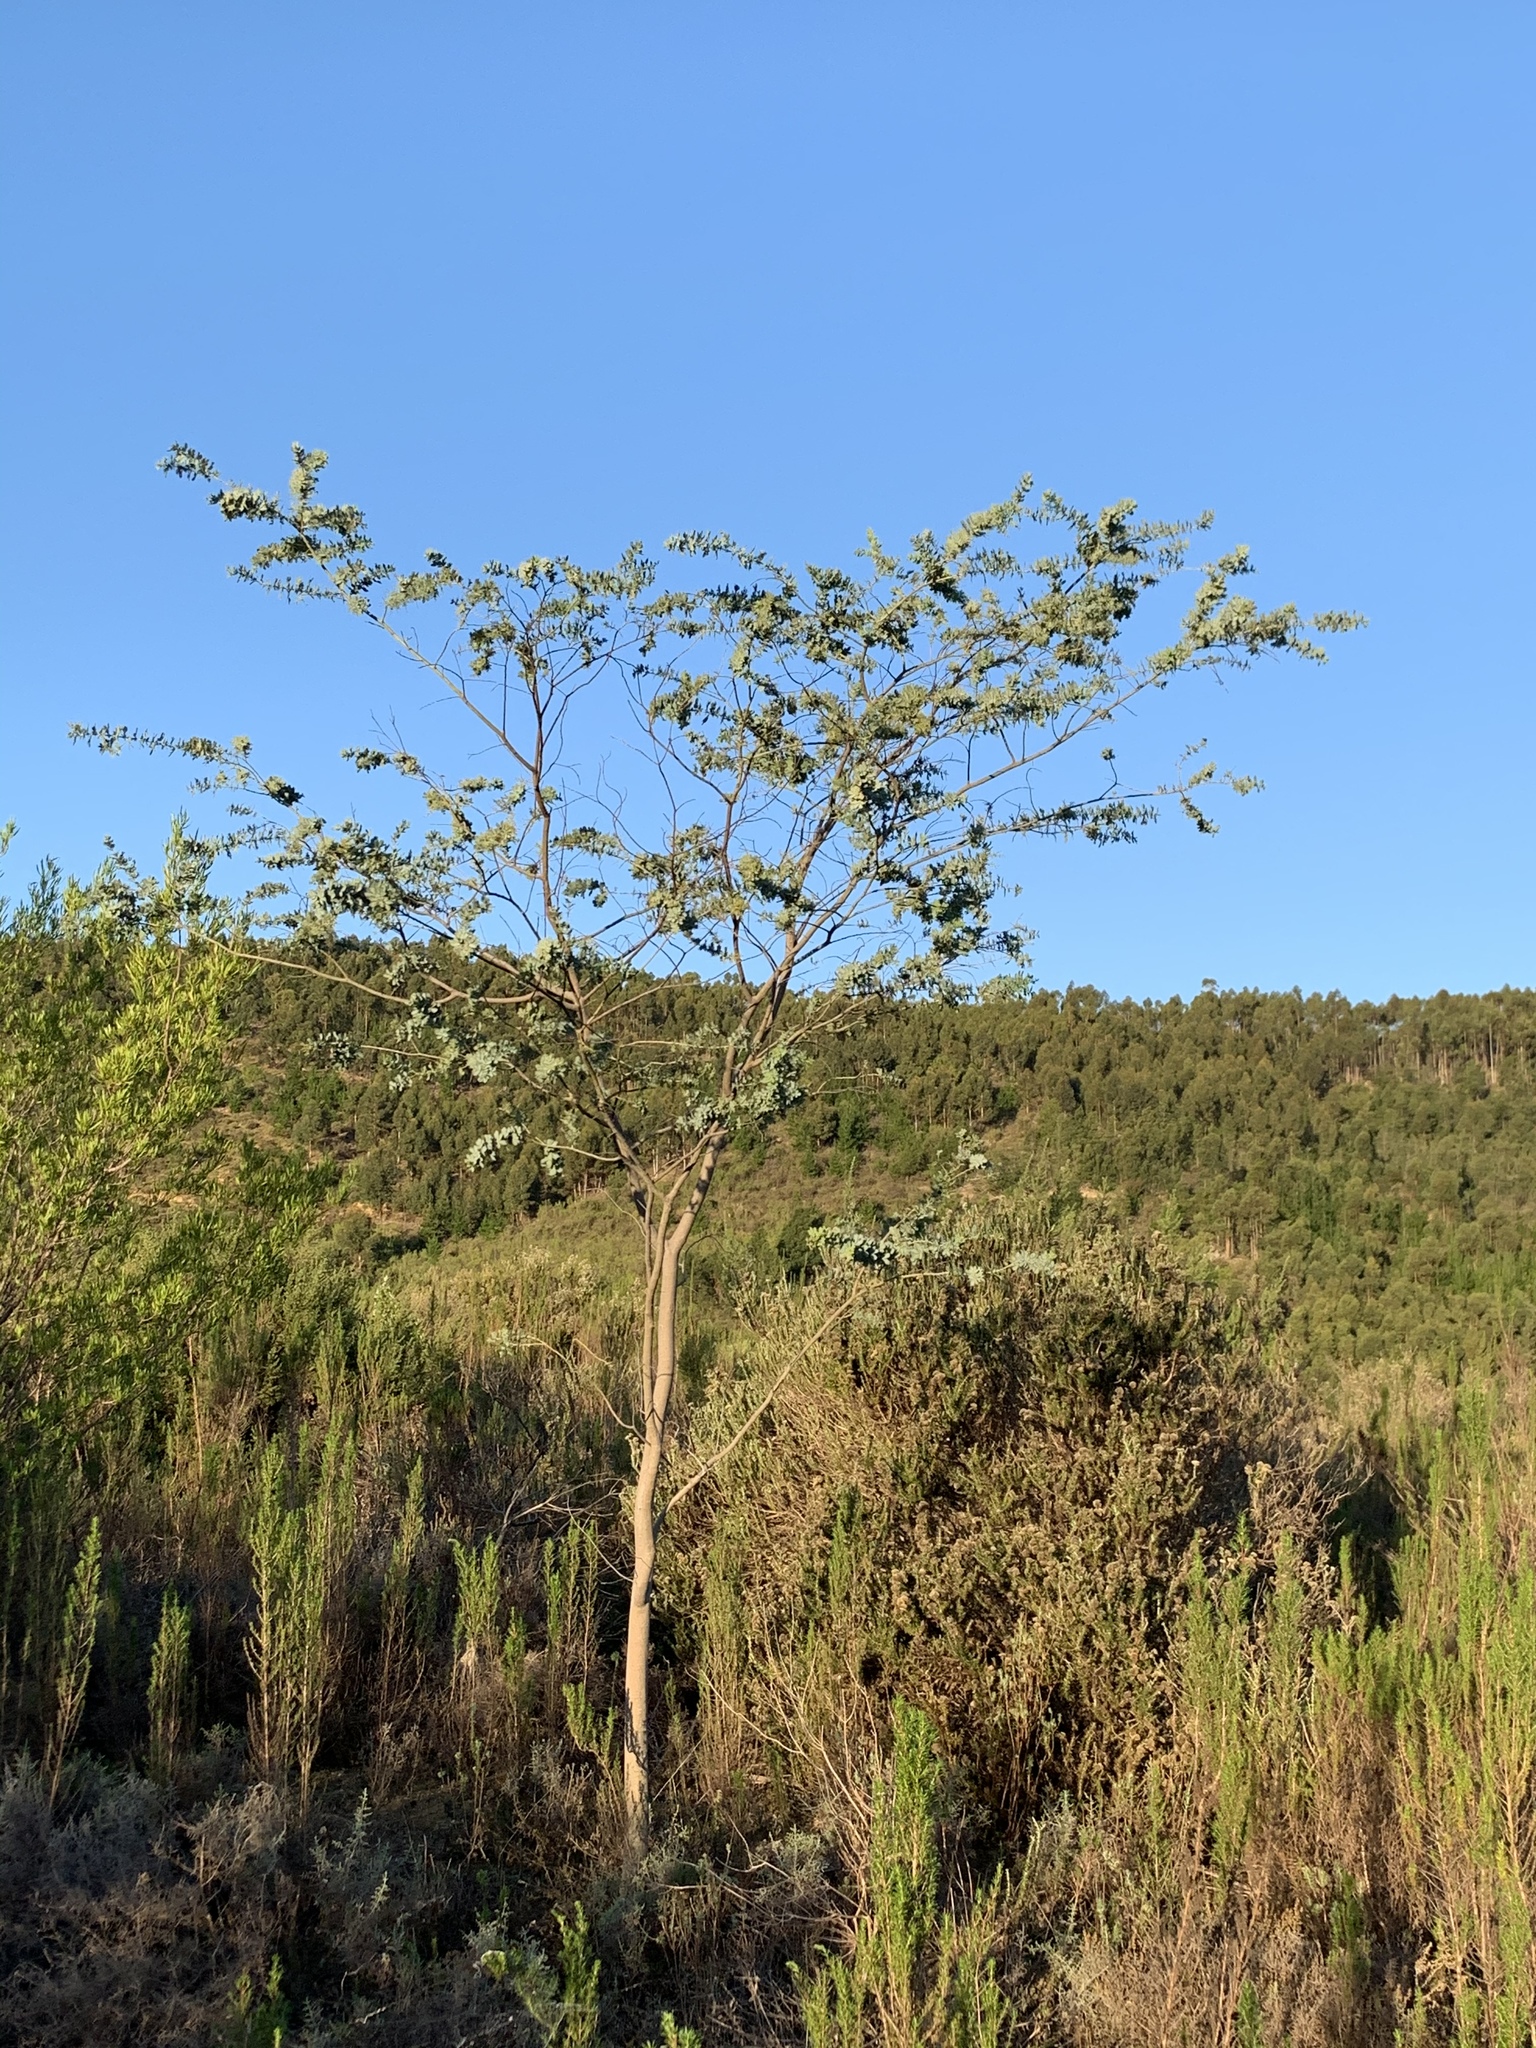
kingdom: Plantae
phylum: Tracheophyta
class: Magnoliopsida
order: Fabales
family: Fabaceae
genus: Acacia
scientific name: Acacia baileyana
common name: Cootamundra wattle
